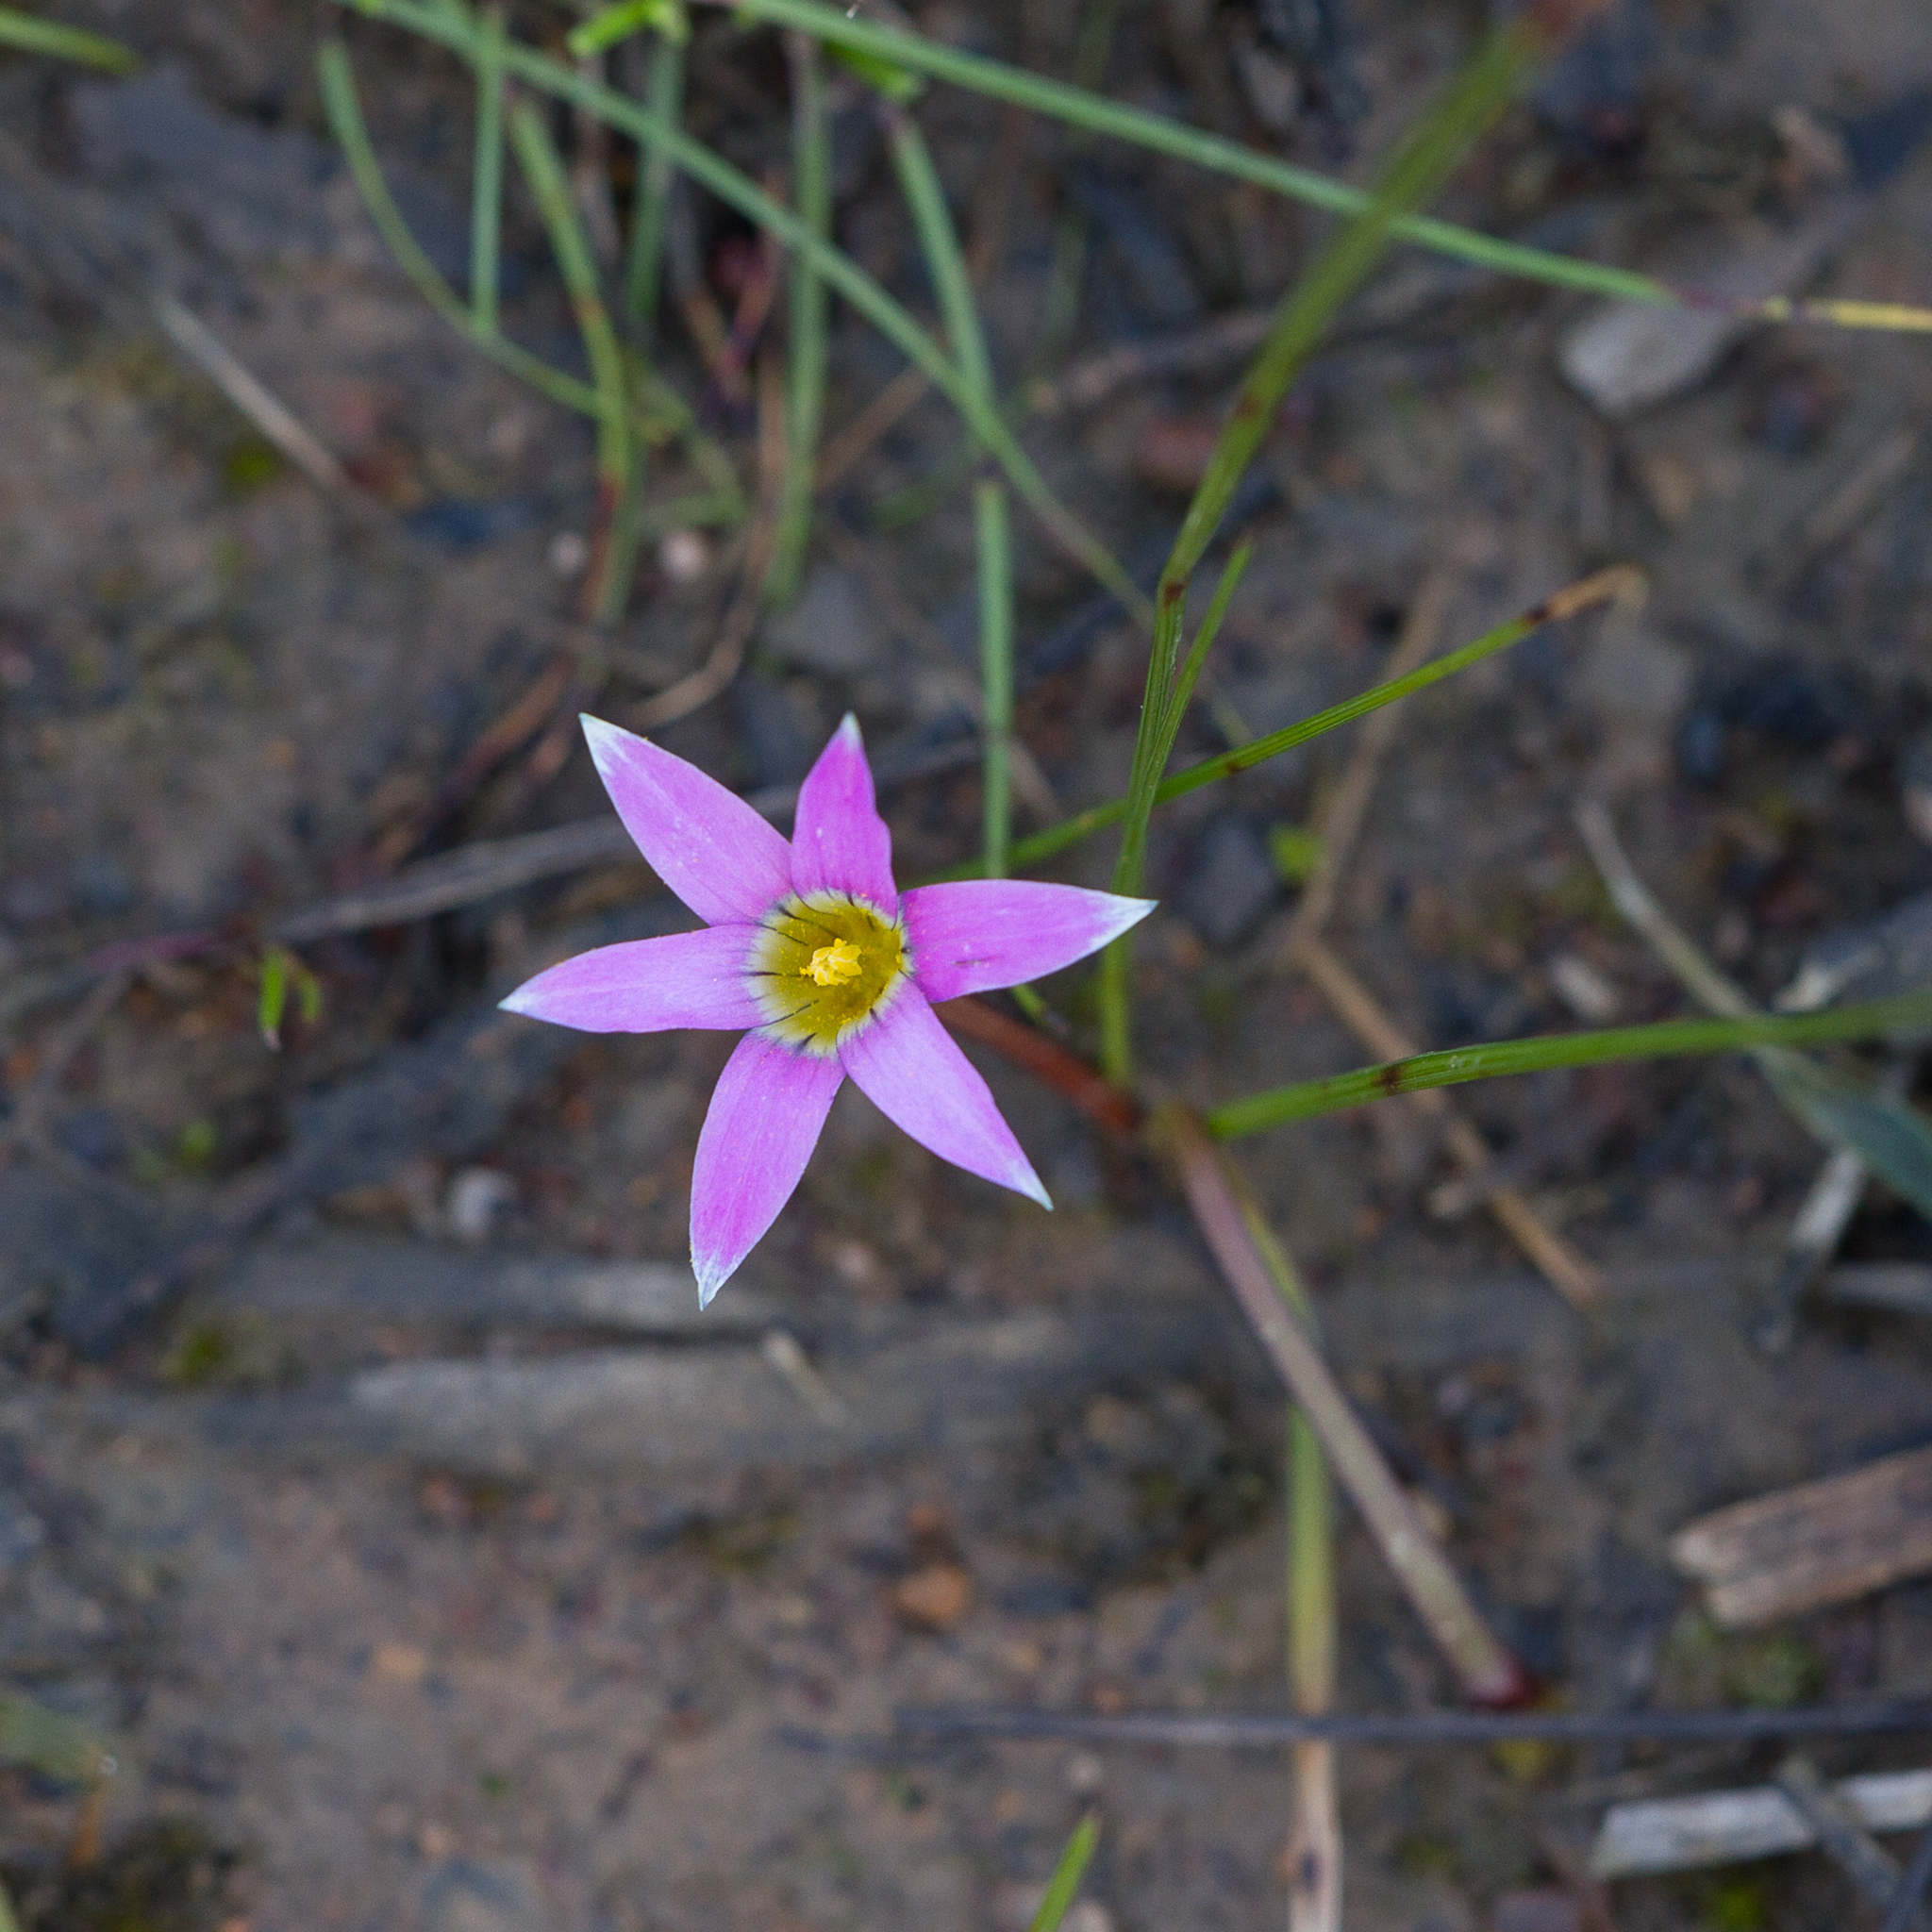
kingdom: Plantae
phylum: Tracheophyta
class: Liliopsida
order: Asparagales
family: Iridaceae
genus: Romulea
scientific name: Romulea rosea
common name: Oniongrass
